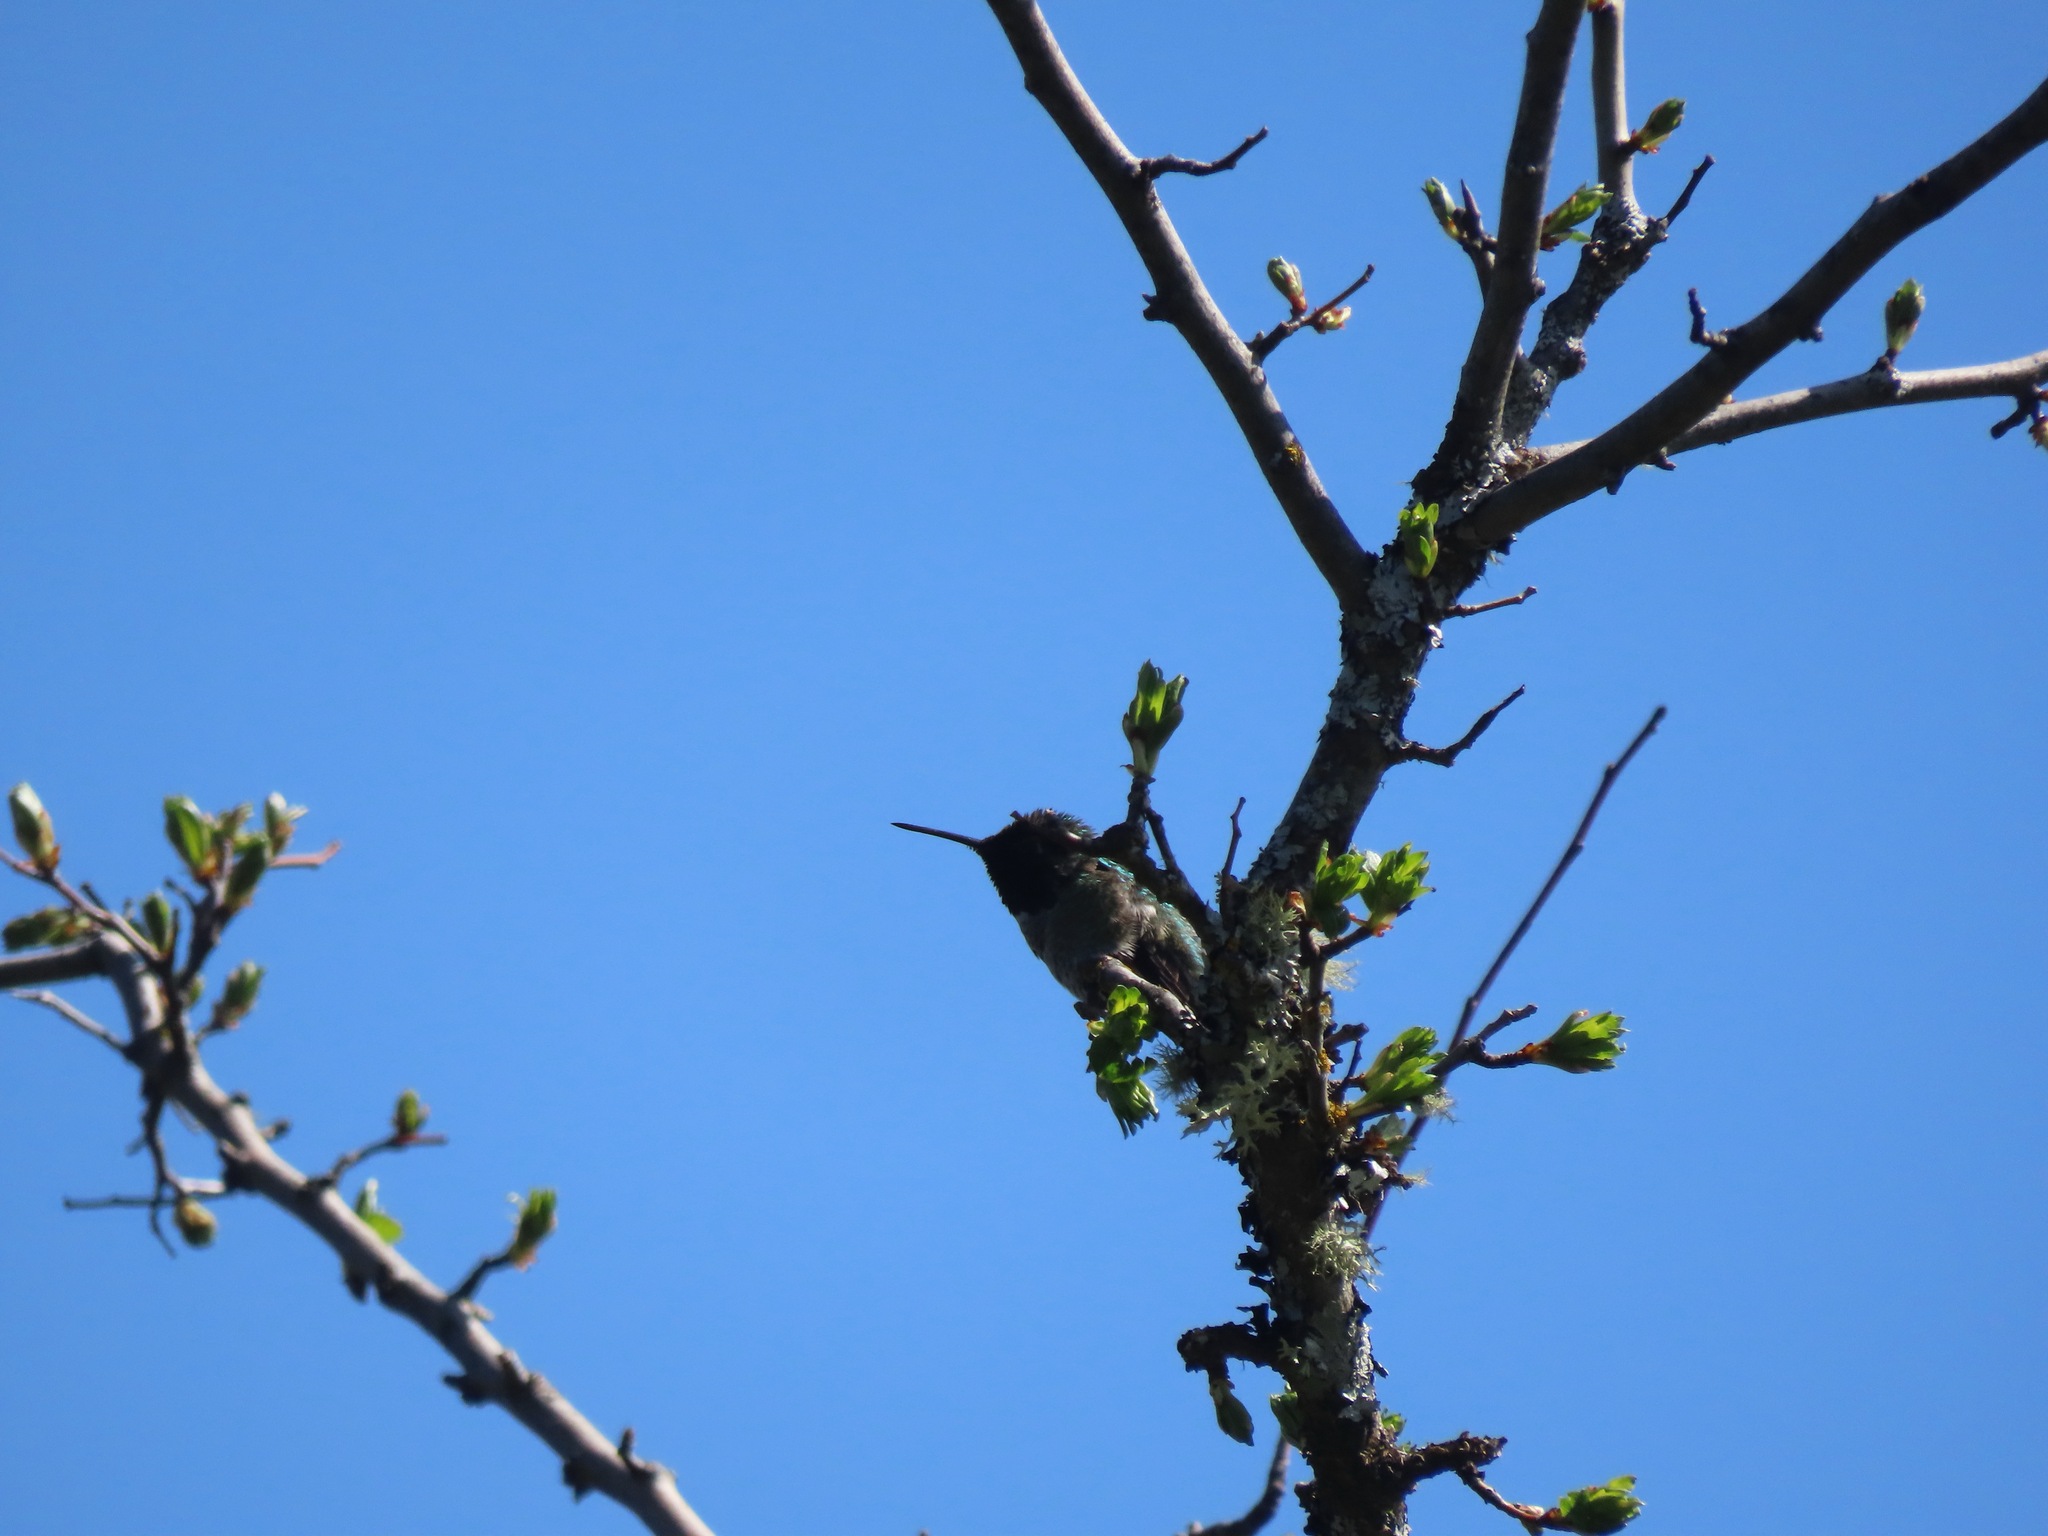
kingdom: Animalia
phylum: Chordata
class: Aves
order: Apodiformes
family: Trochilidae
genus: Calypte
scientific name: Calypte anna
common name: Anna's hummingbird
